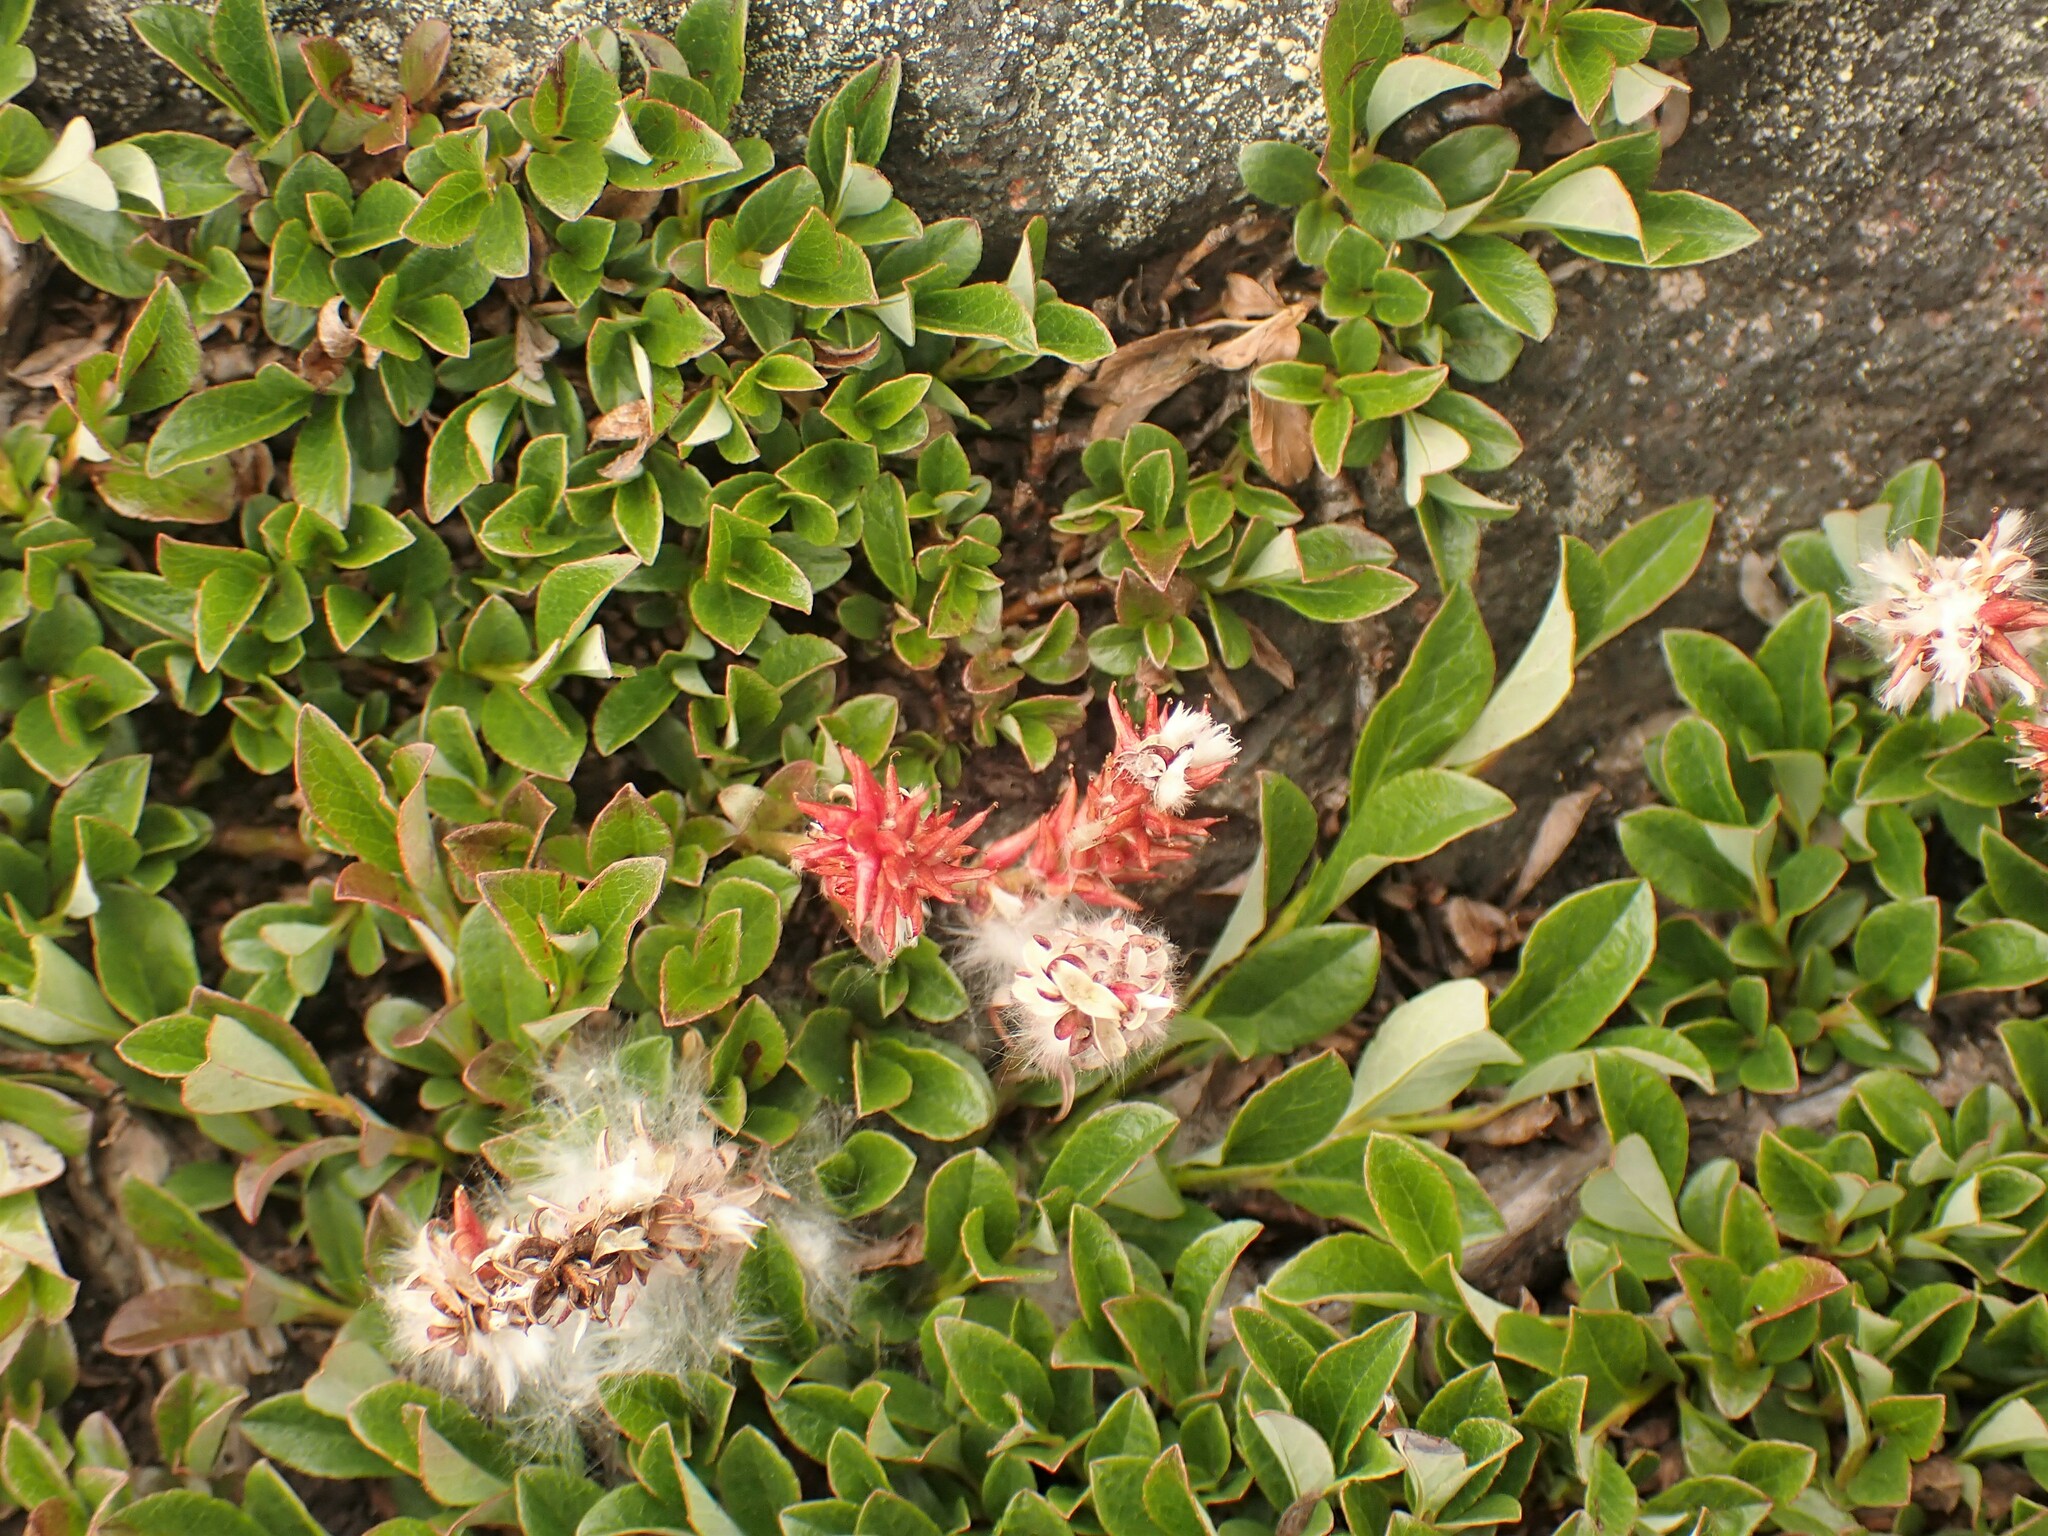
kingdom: Plantae
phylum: Tracheophyta
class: Magnoliopsida
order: Malpighiales
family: Salicaceae
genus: Salix
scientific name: Salix uva-ursi
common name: Bearberry willow
